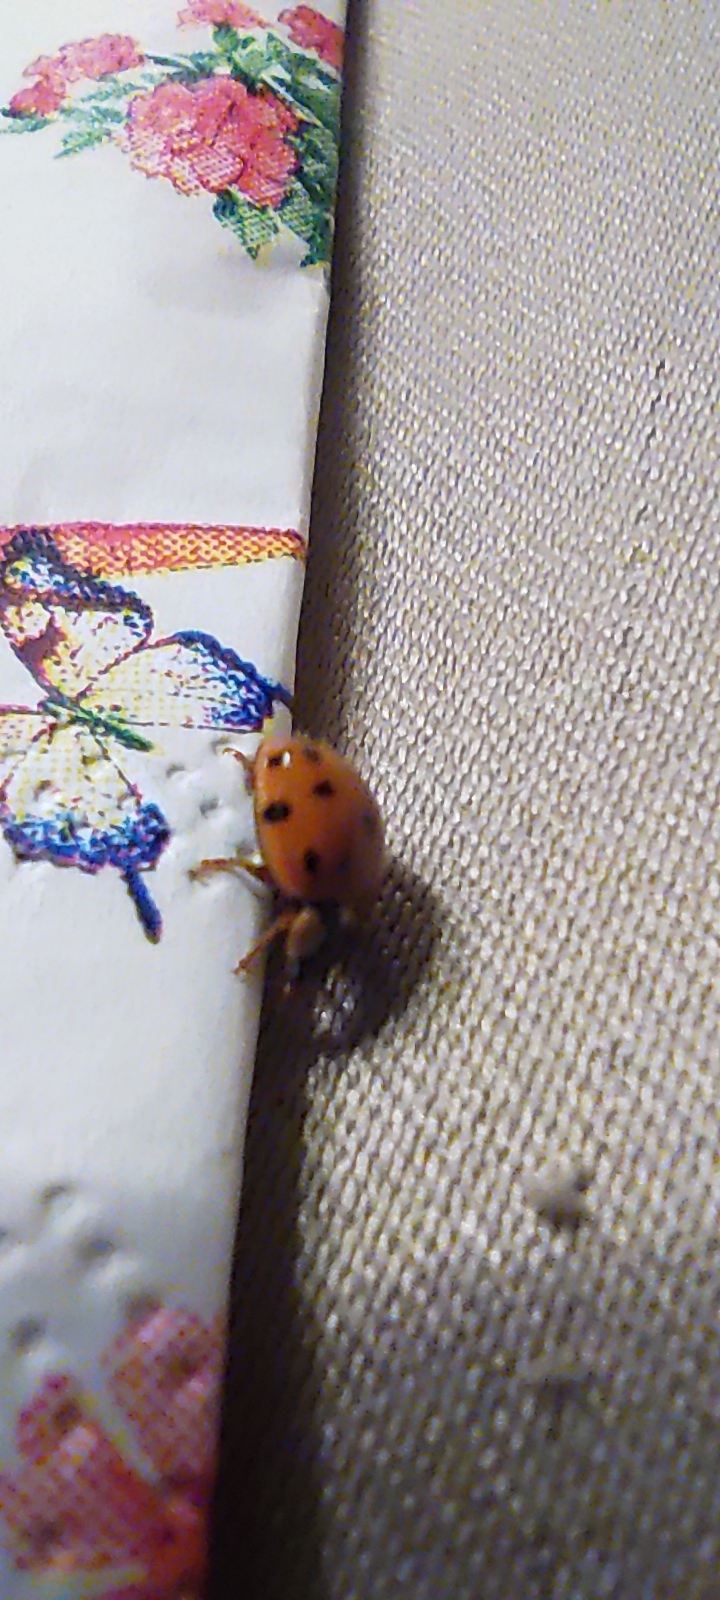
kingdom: Animalia
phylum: Arthropoda
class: Insecta
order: Coleoptera
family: Coccinellidae
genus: Harmonia
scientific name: Harmonia axyridis
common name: Harlequin ladybird
